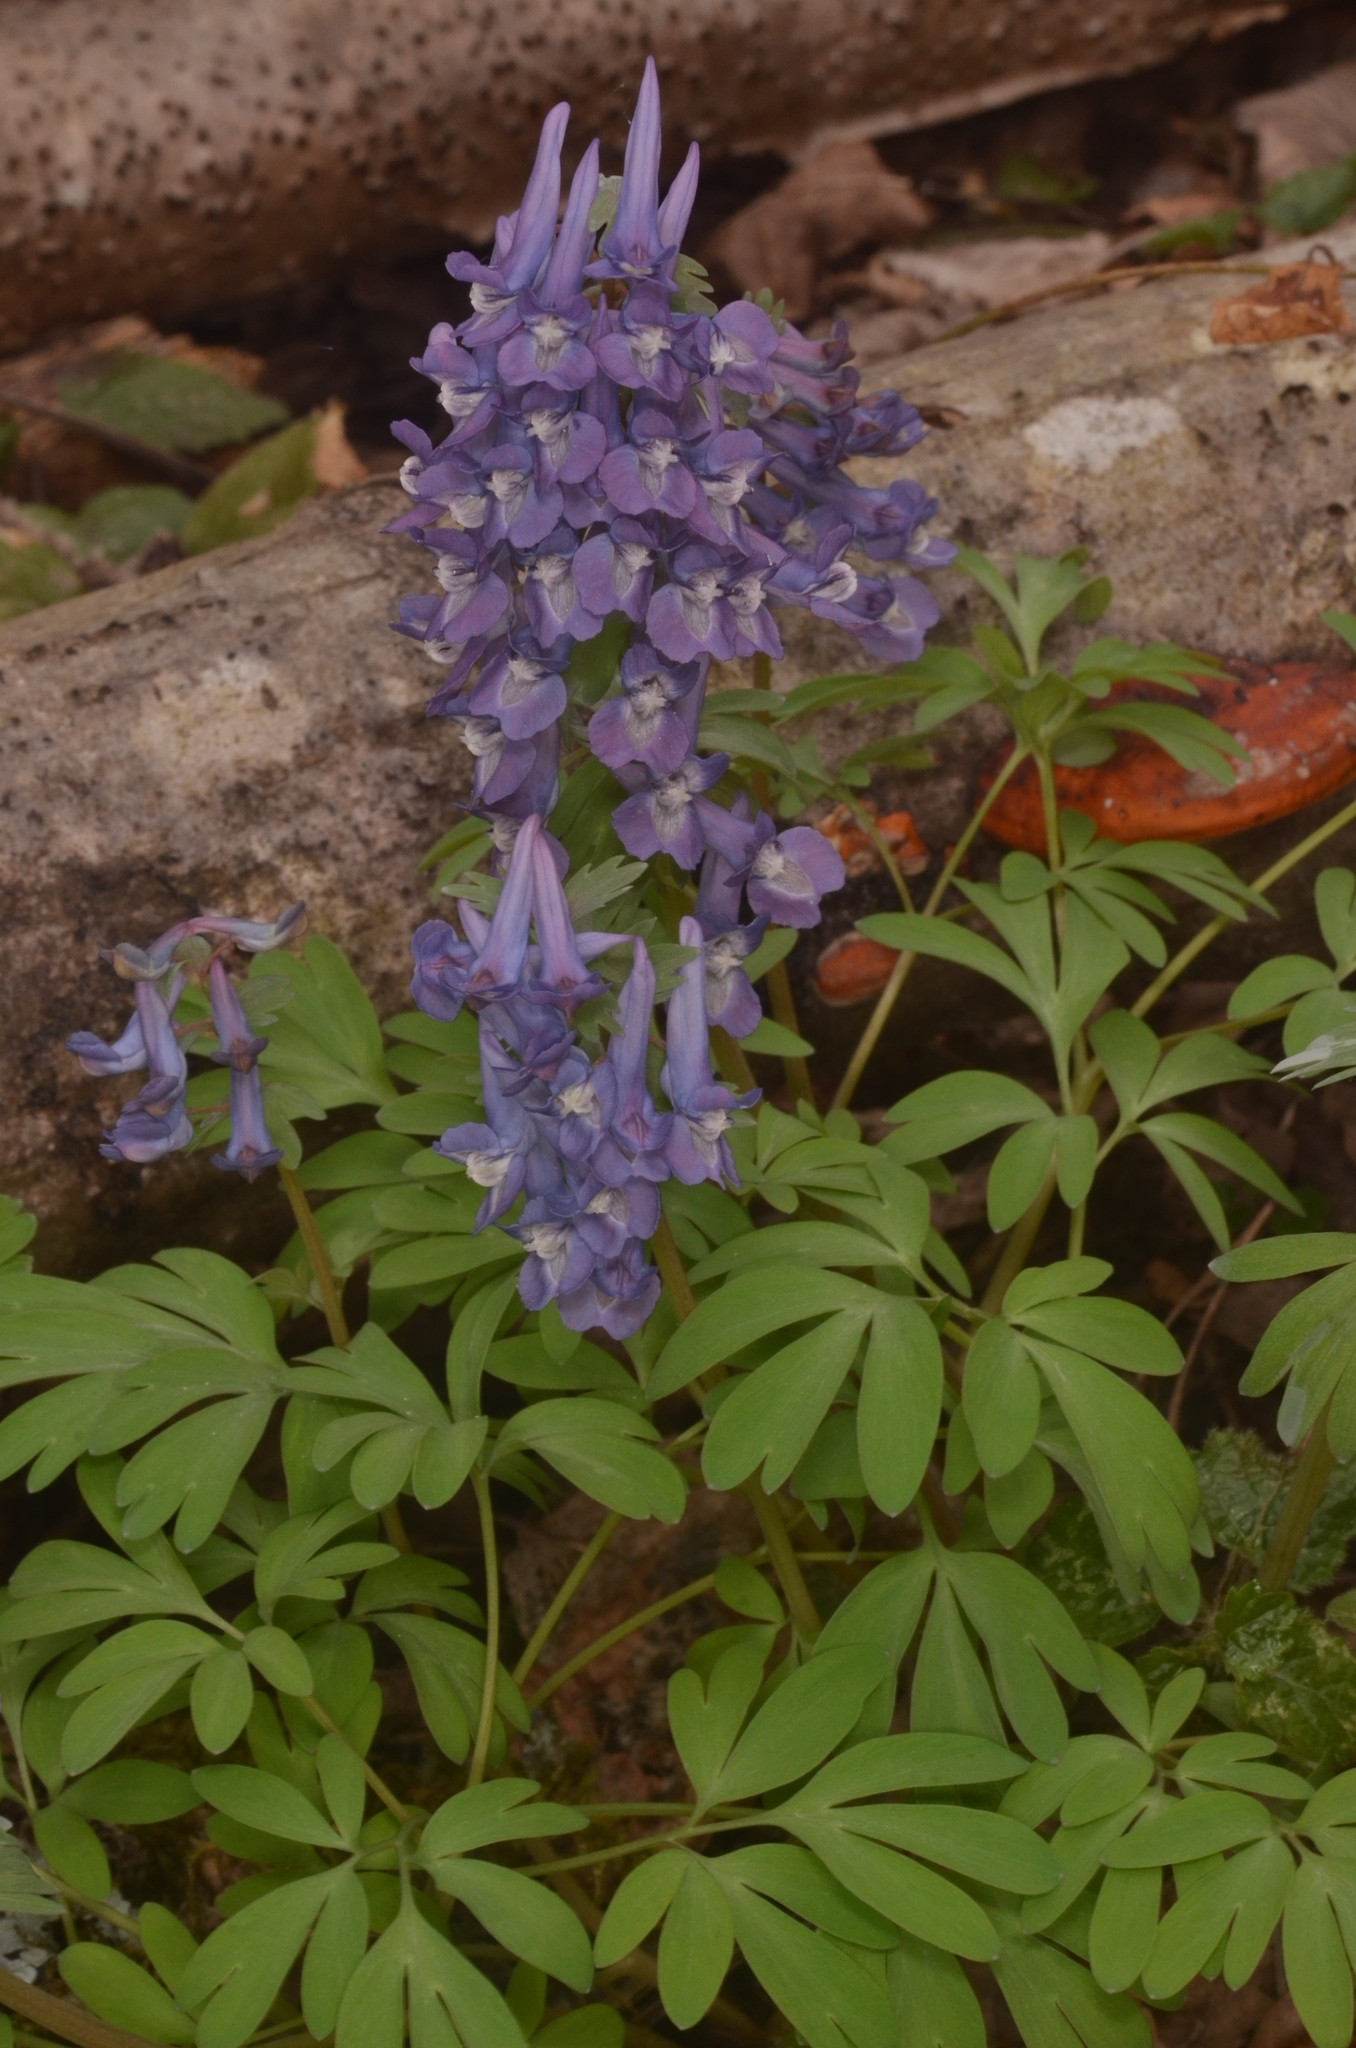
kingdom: Plantae
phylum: Tracheophyta
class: Magnoliopsida
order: Ranunculales
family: Papaveraceae
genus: Corydalis
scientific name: Corydalis solida
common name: Bird-in-a-bush
